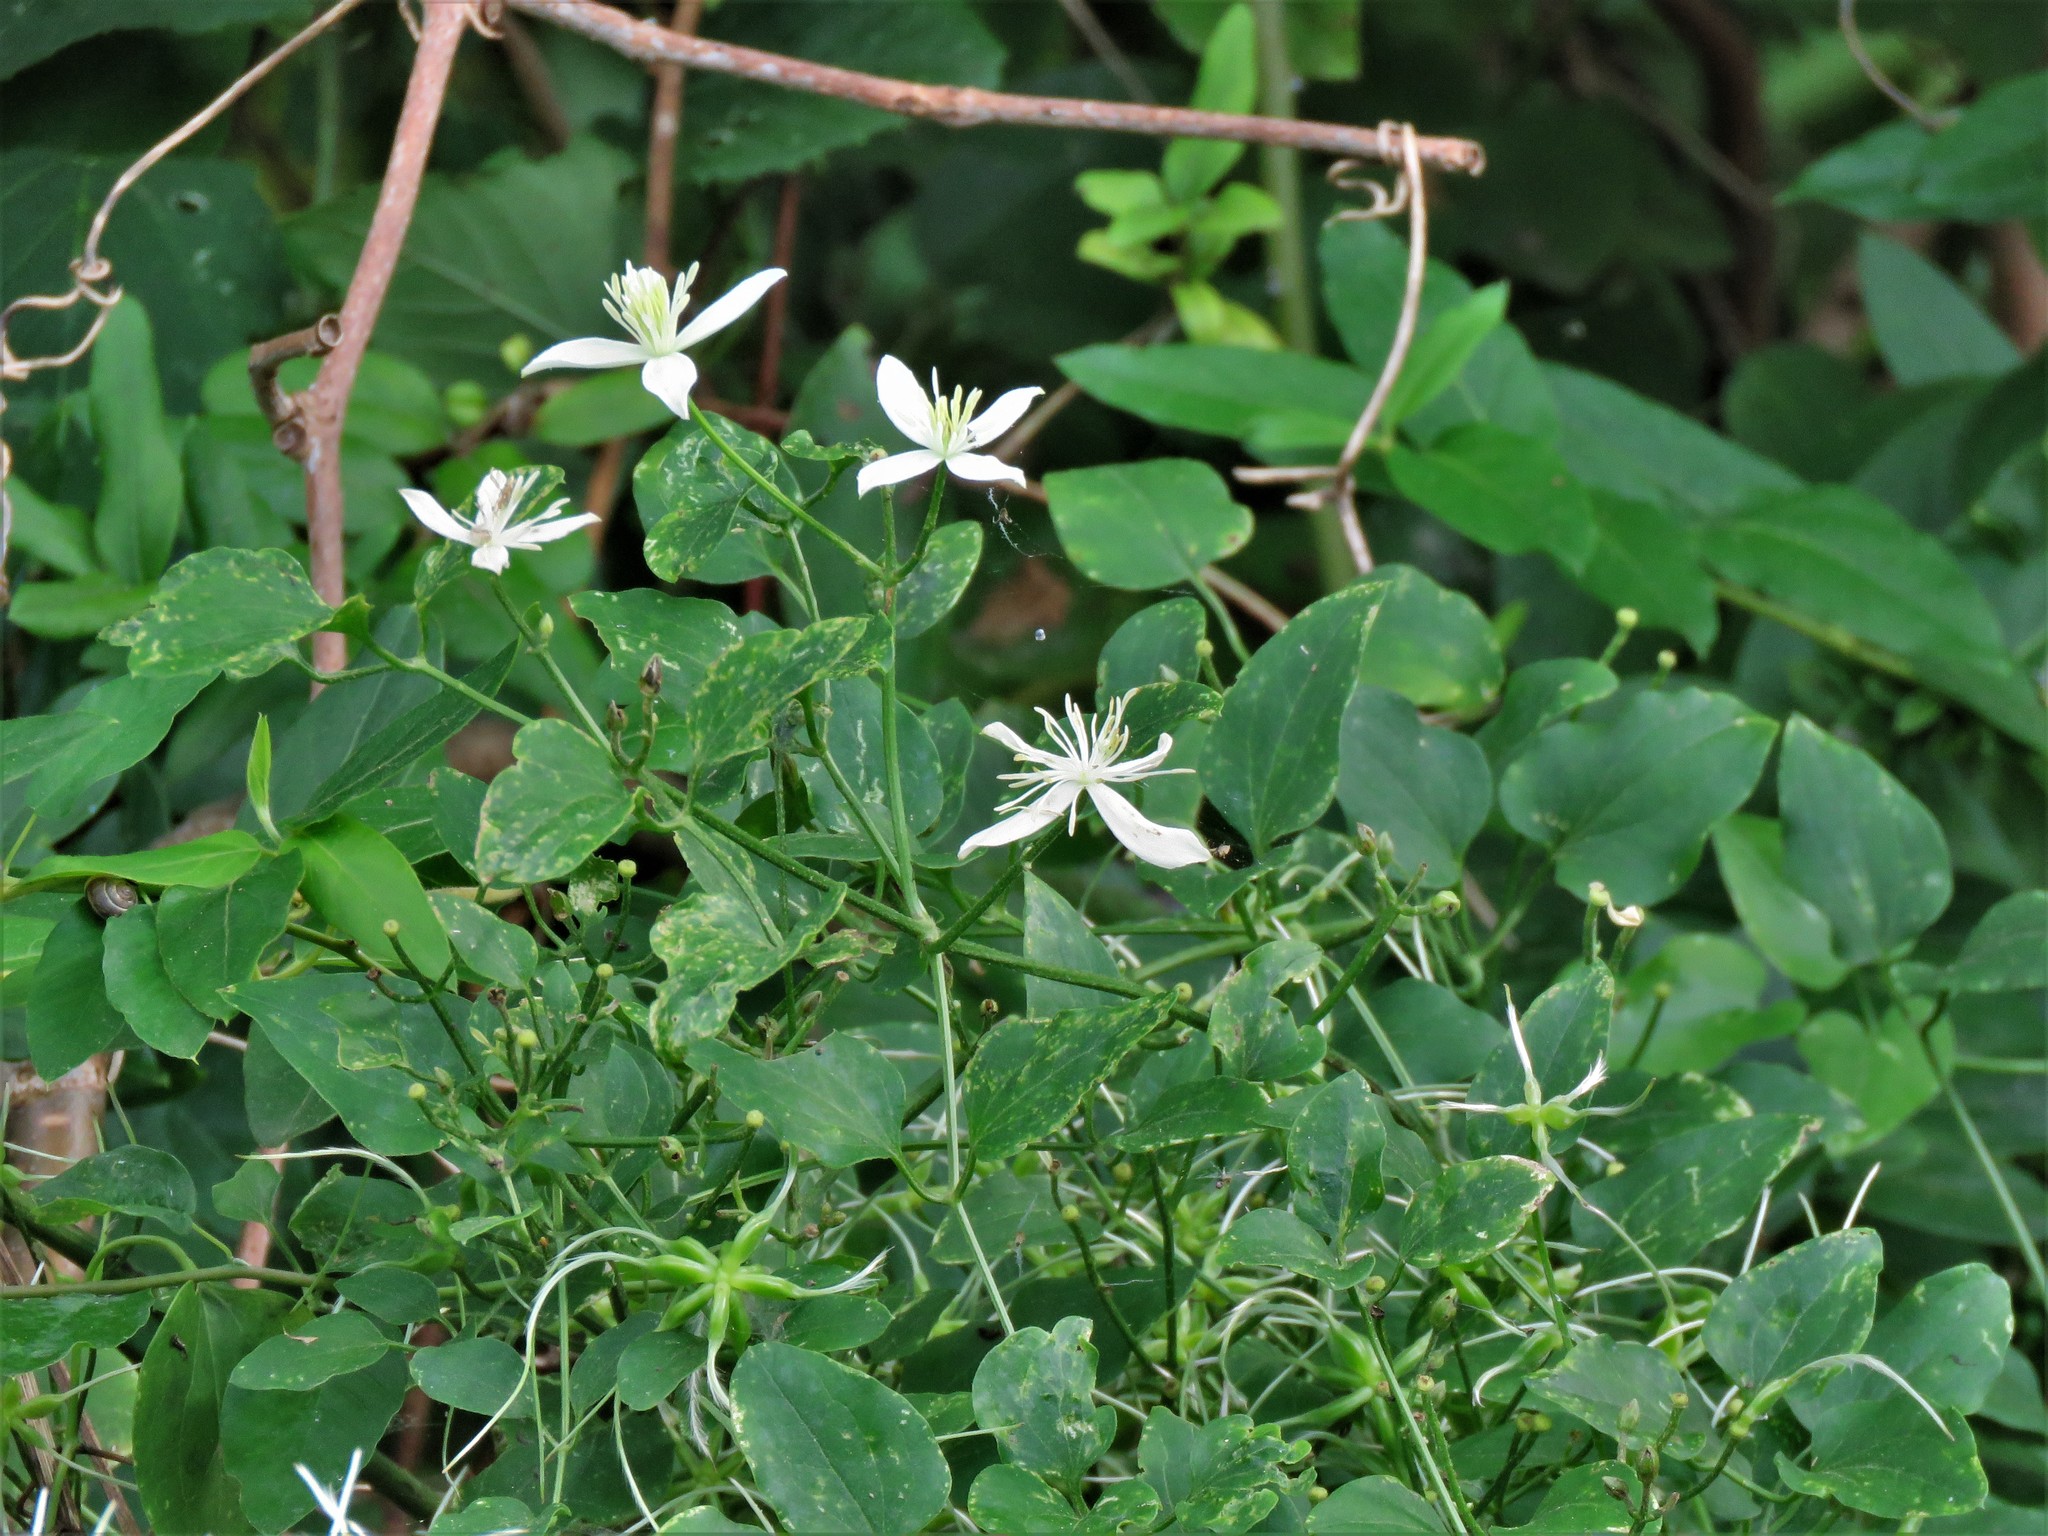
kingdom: Plantae
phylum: Tracheophyta
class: Magnoliopsida
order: Ranunculales
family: Ranunculaceae
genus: Clematis
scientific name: Clematis terniflora
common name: Sweet autumn clematis
